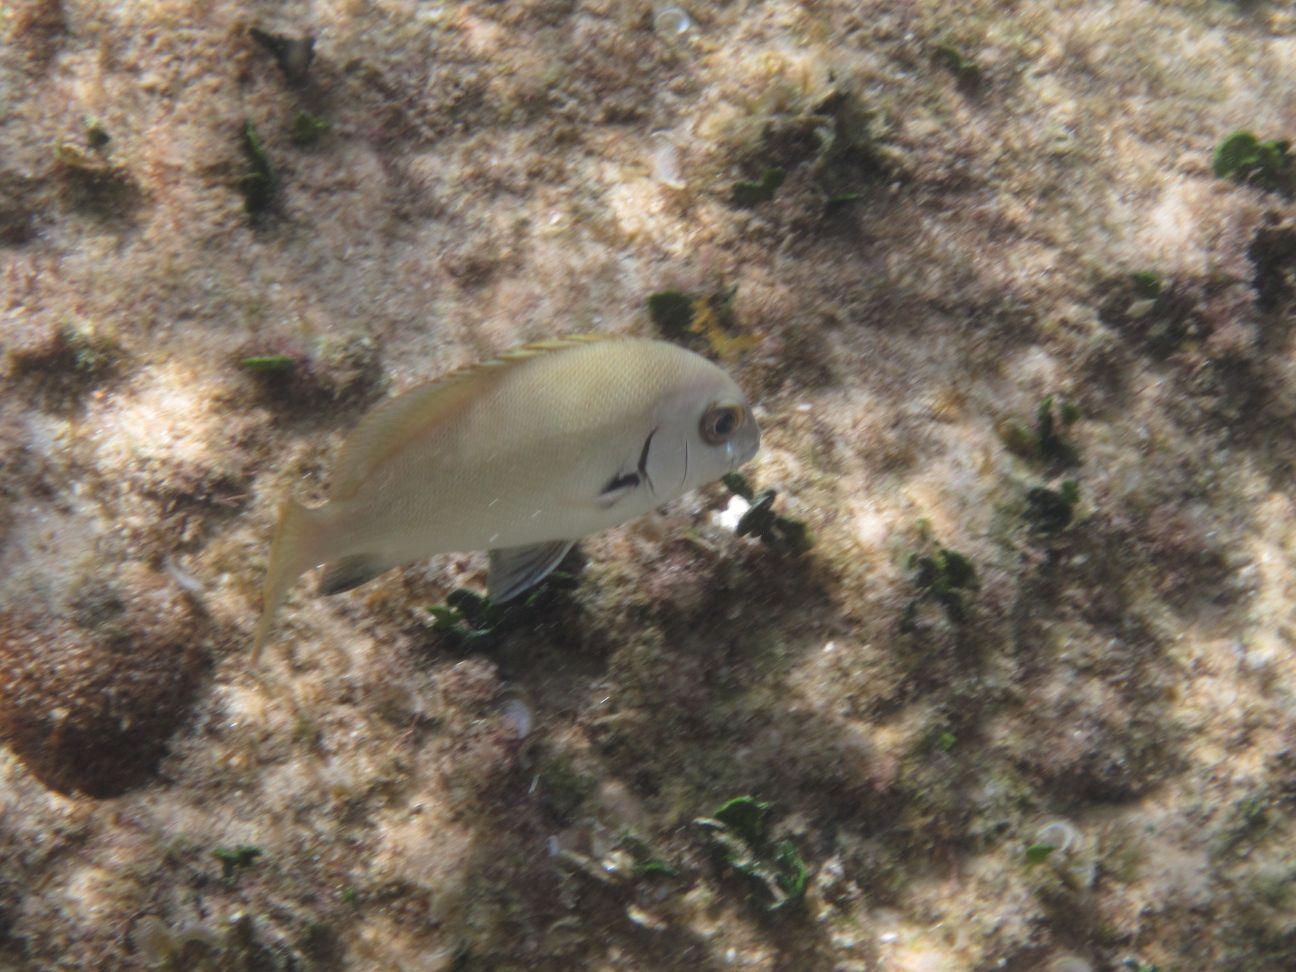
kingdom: Animalia
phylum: Chordata
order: Perciformes
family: Haemulidae
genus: Plectorhinchus
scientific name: Plectorhinchus sordidus
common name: Sordid rubberlip
